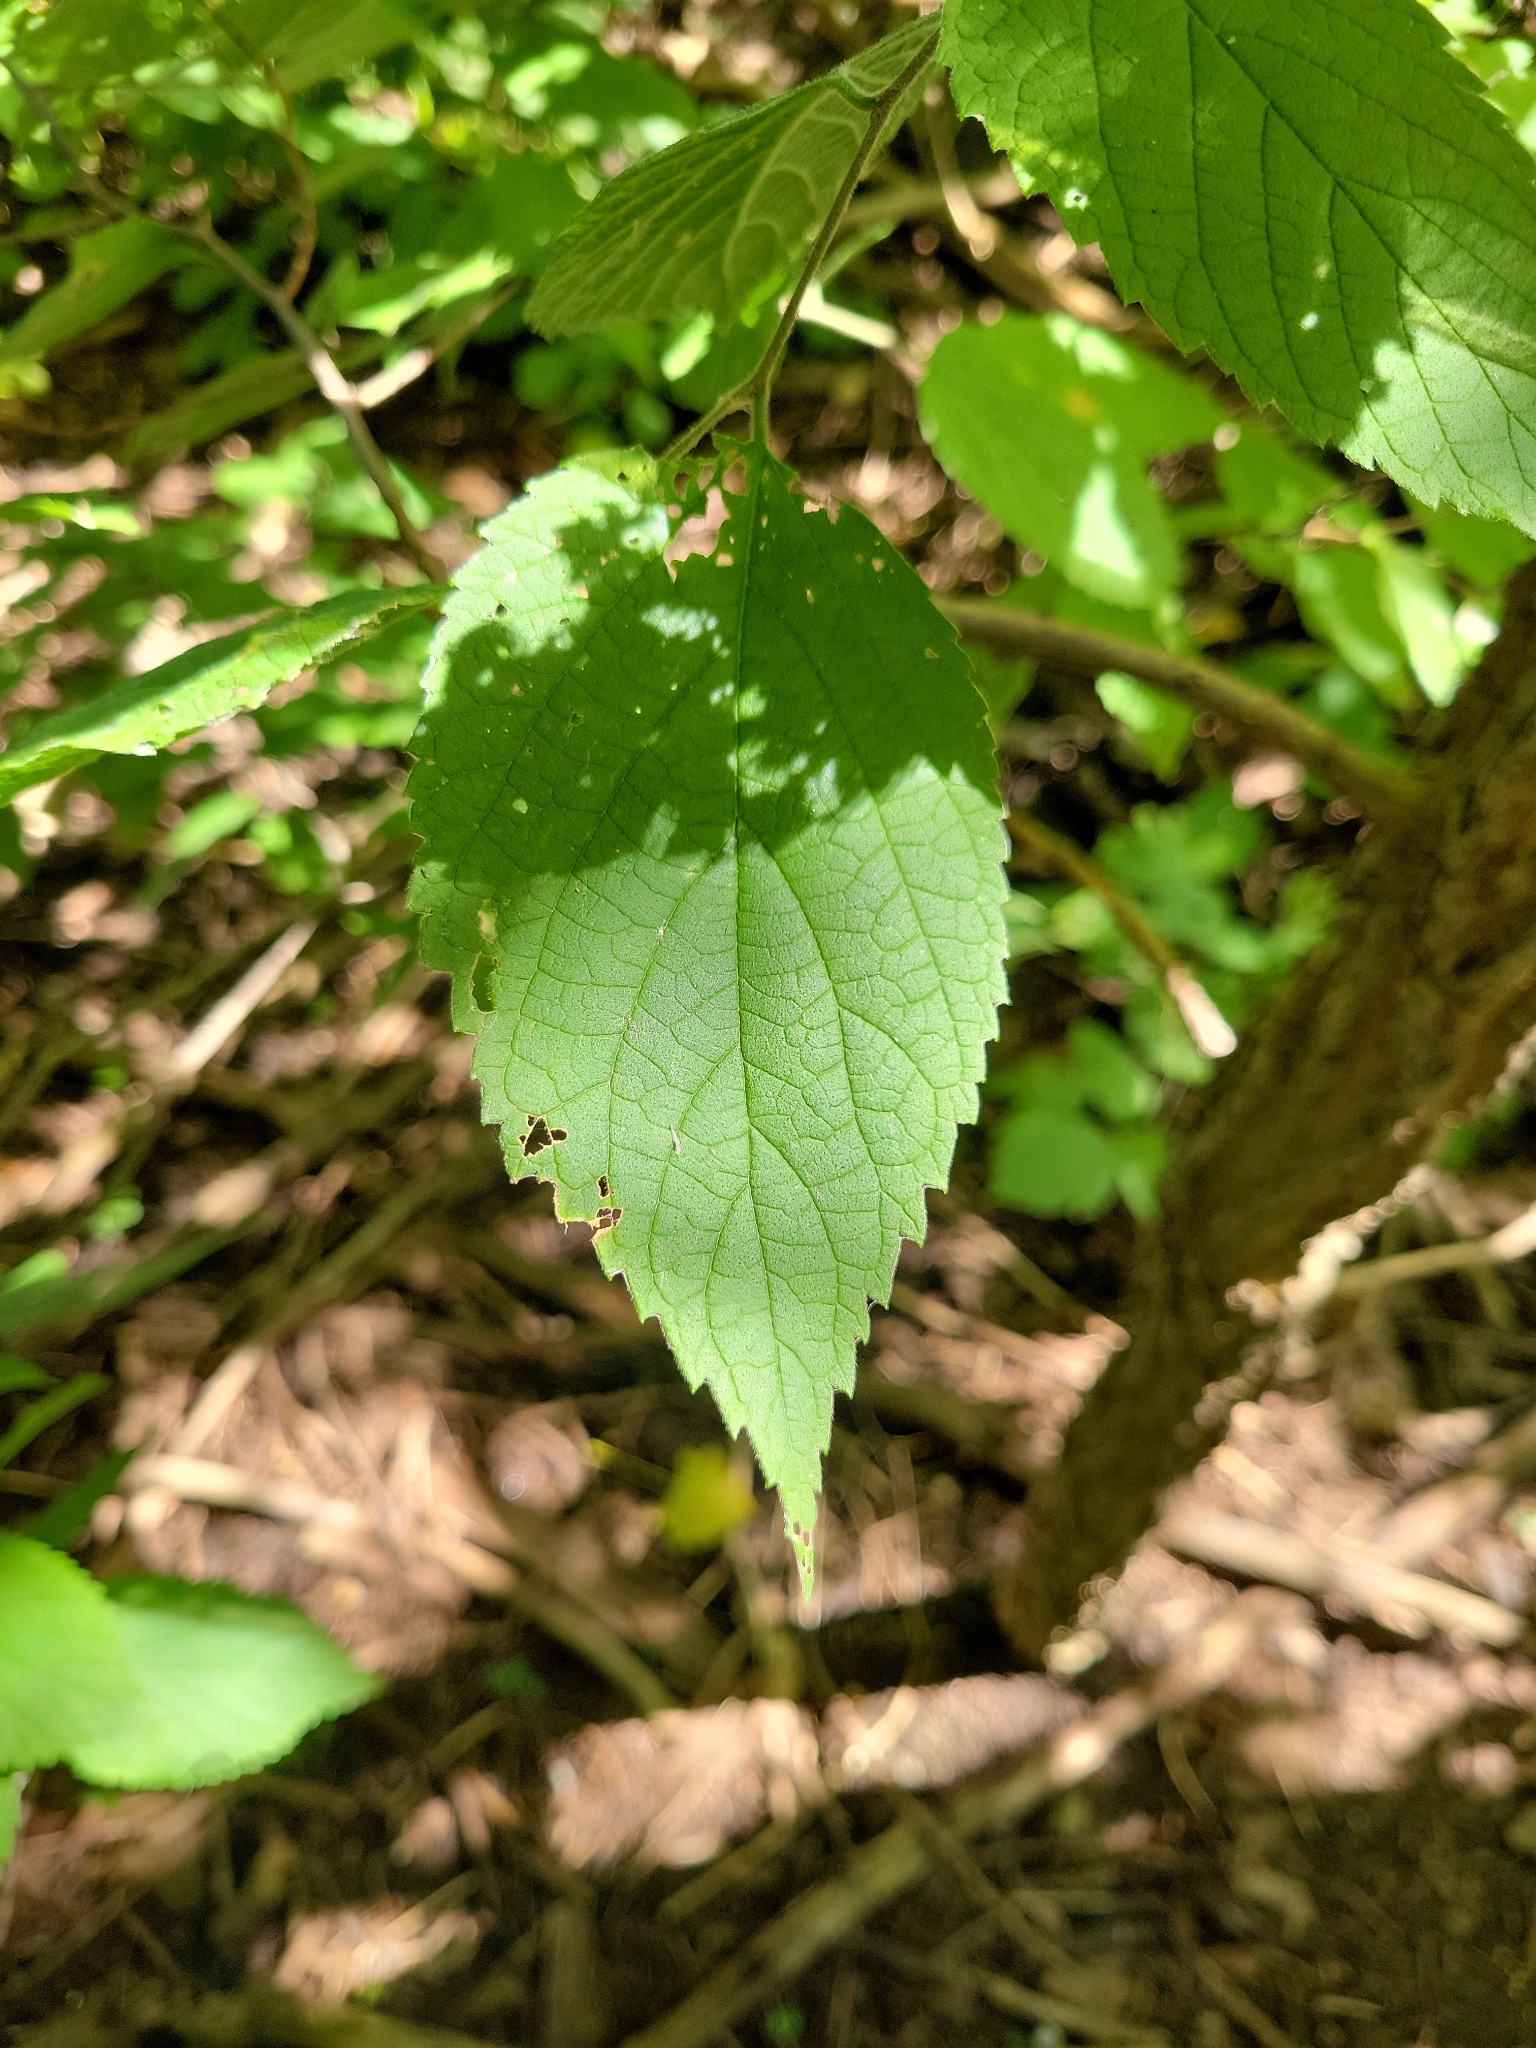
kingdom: Plantae
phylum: Tracheophyta
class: Magnoliopsida
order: Rosales
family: Cannabaceae
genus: Celtis
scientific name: Celtis occidentalis
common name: Common hackberry
